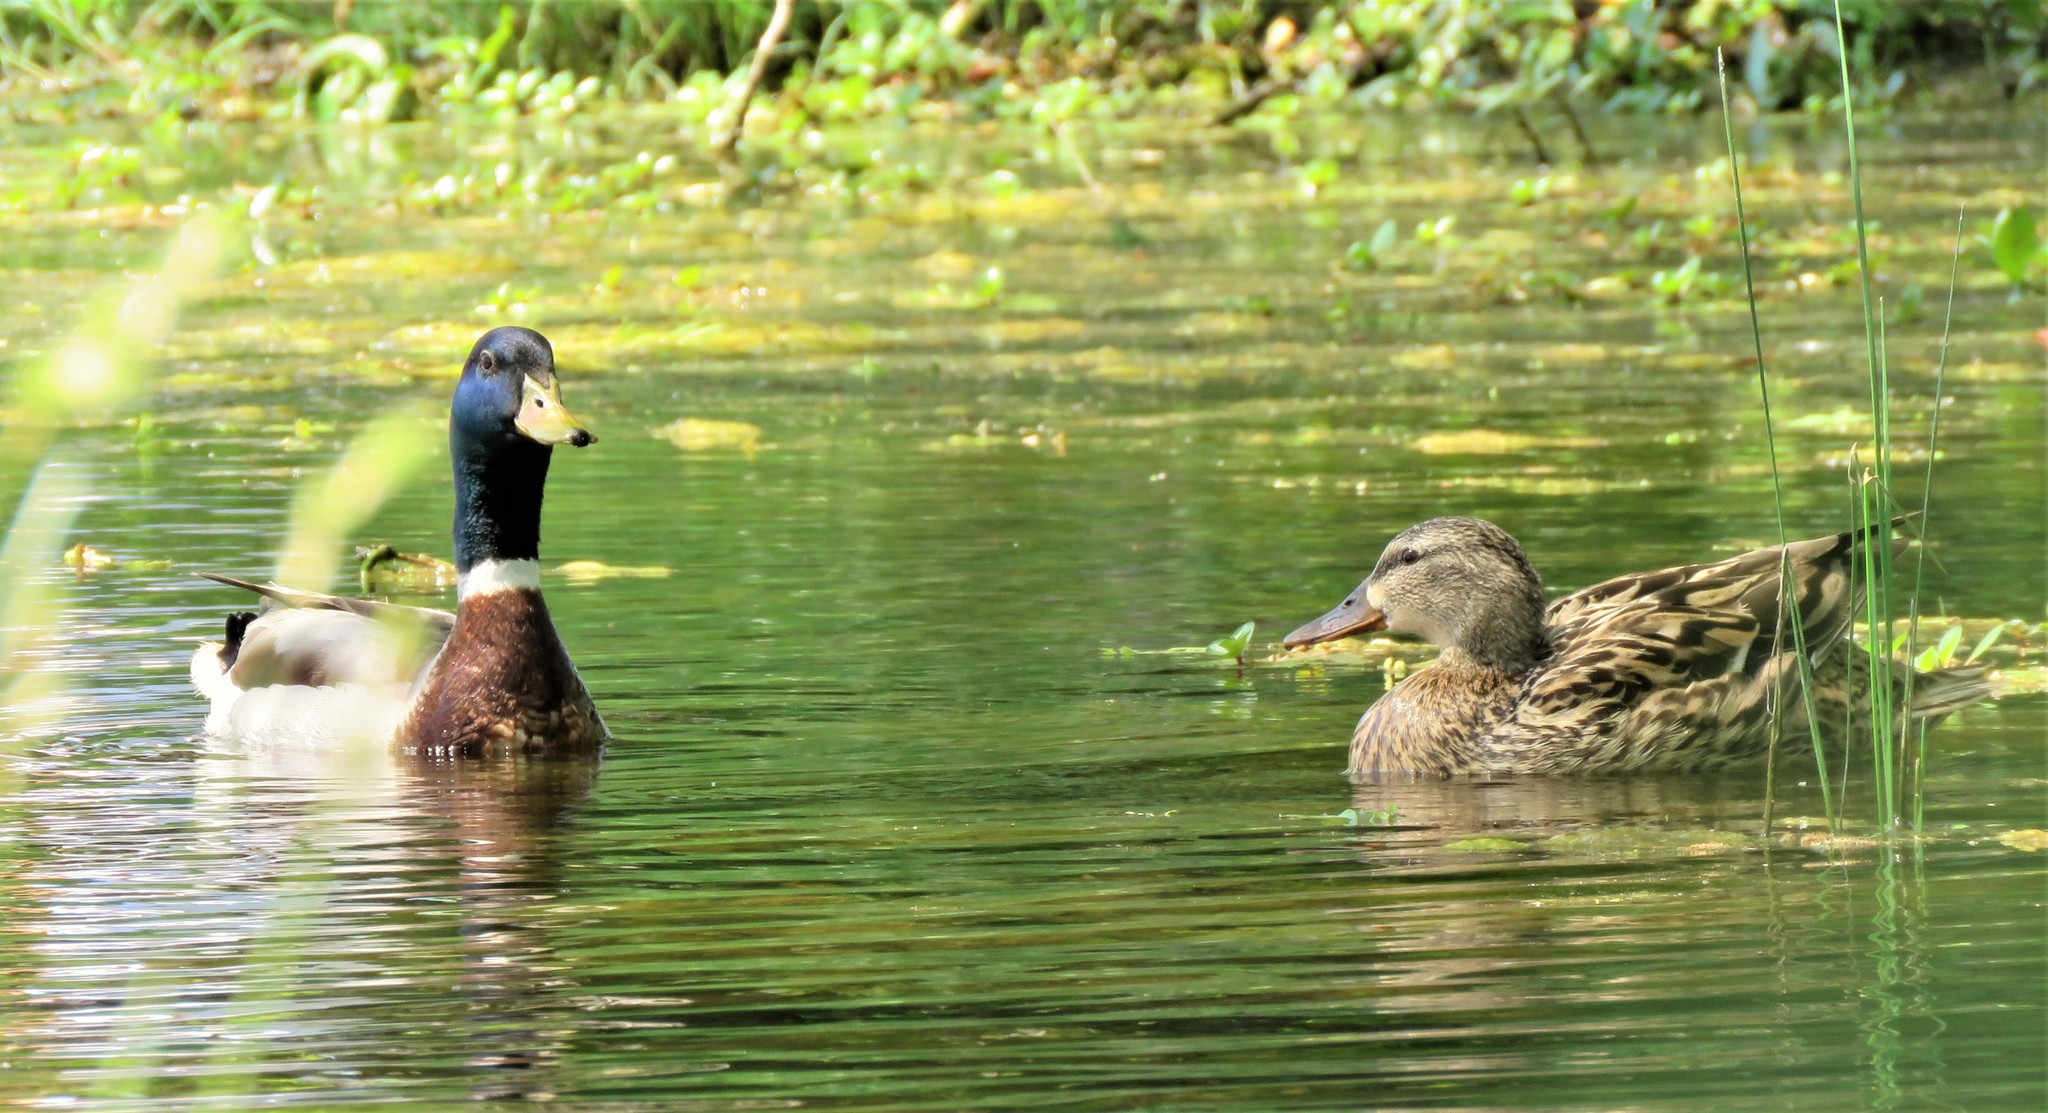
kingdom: Animalia
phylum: Chordata
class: Aves
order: Anseriformes
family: Anatidae
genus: Anas
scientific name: Anas platyrhynchos
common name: Mallard
